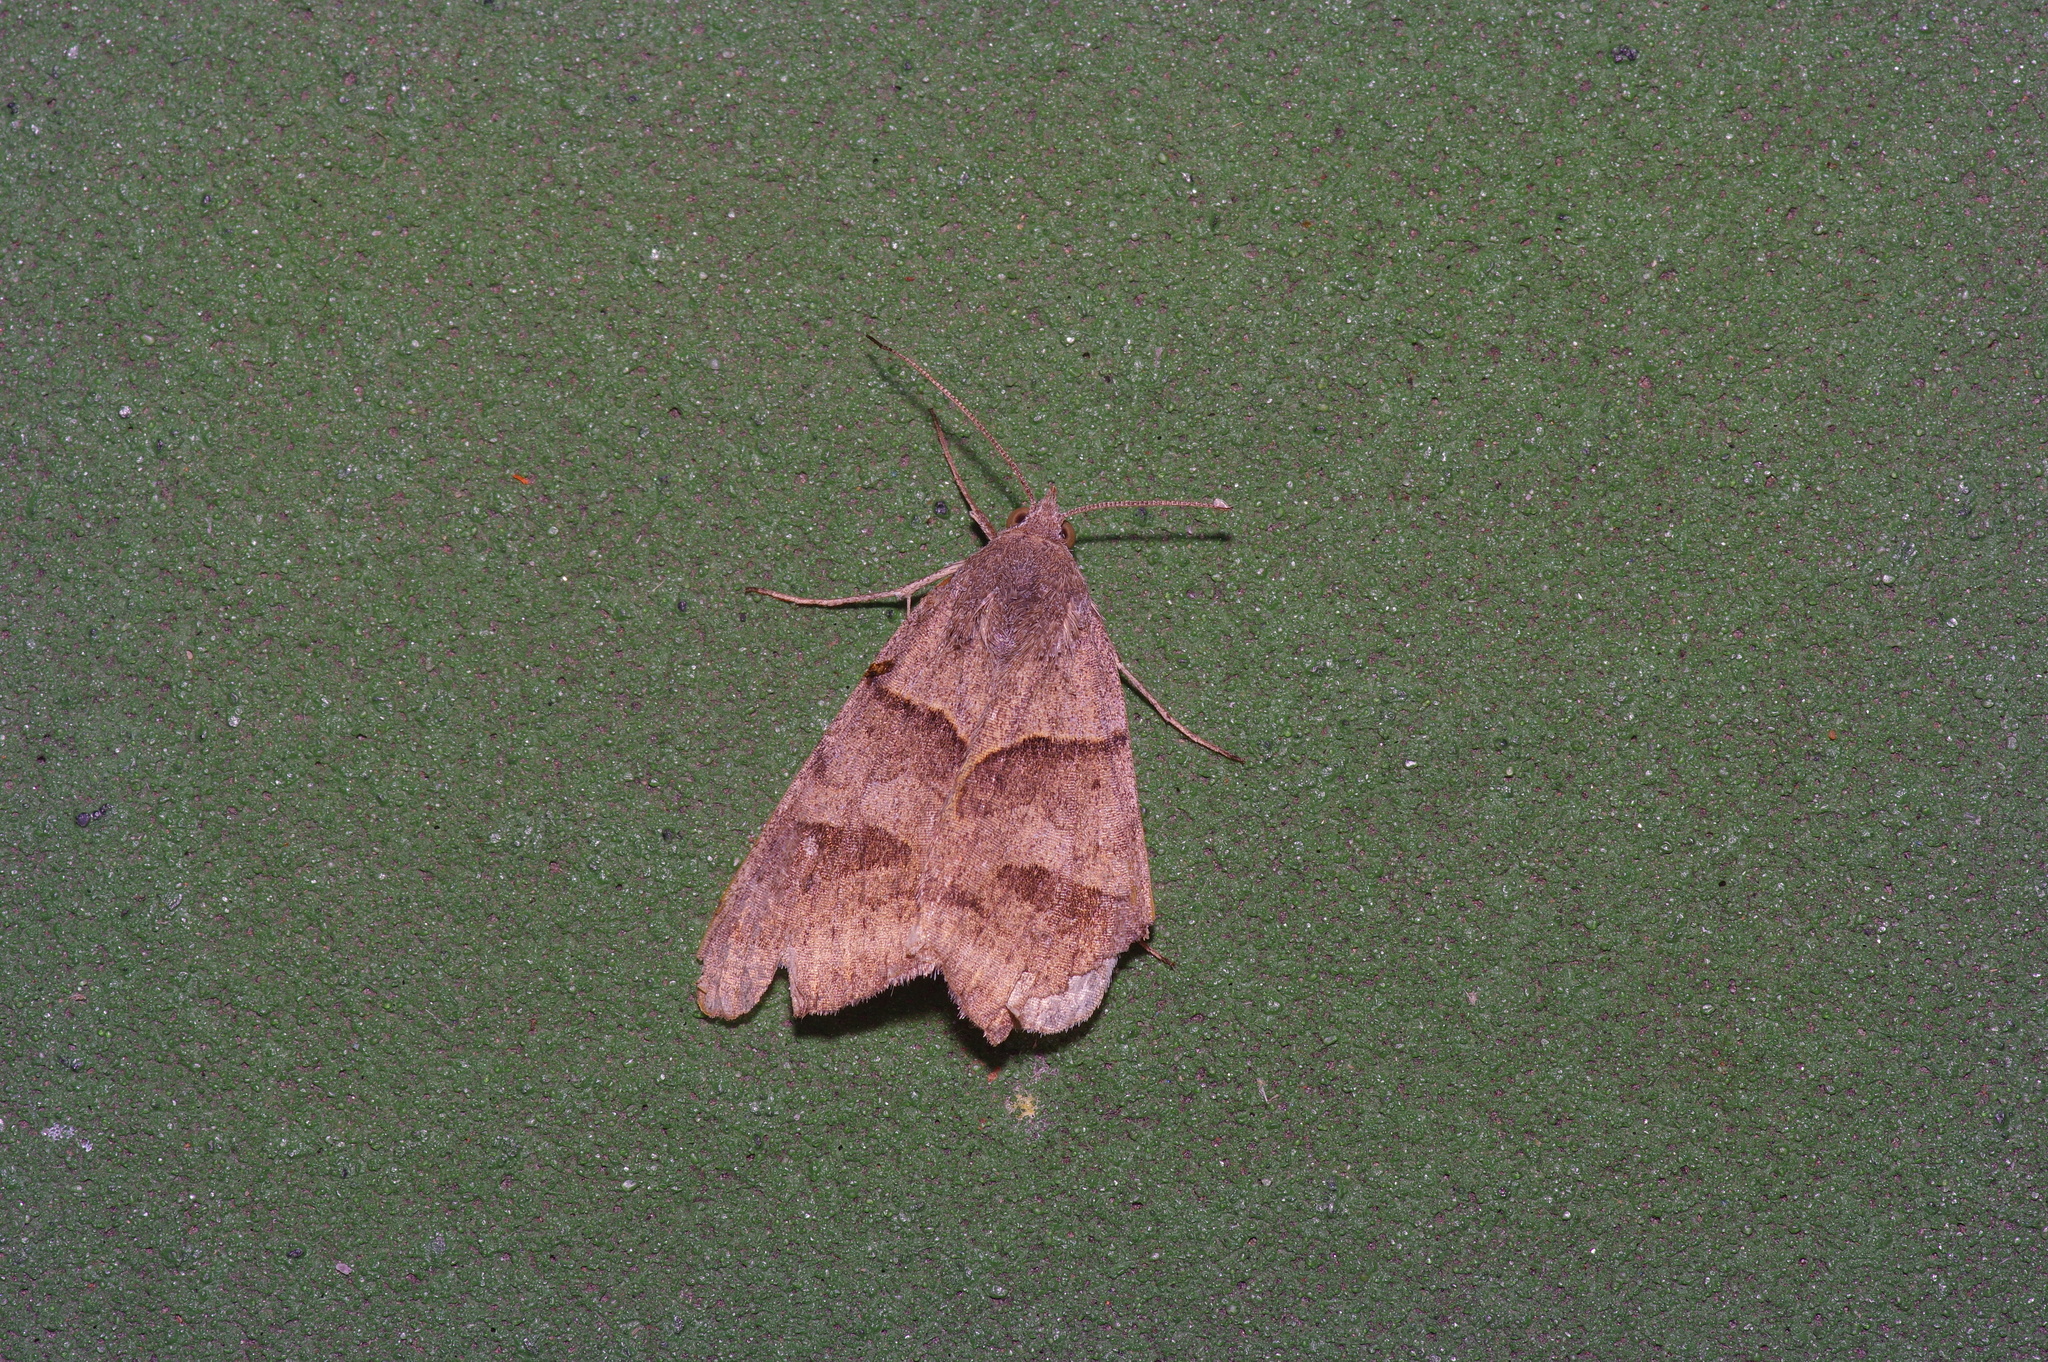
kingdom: Animalia
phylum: Arthropoda
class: Insecta
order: Lepidoptera
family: Erebidae
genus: Caenurgina
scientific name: Caenurgina erechtea
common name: Forage looper moth
